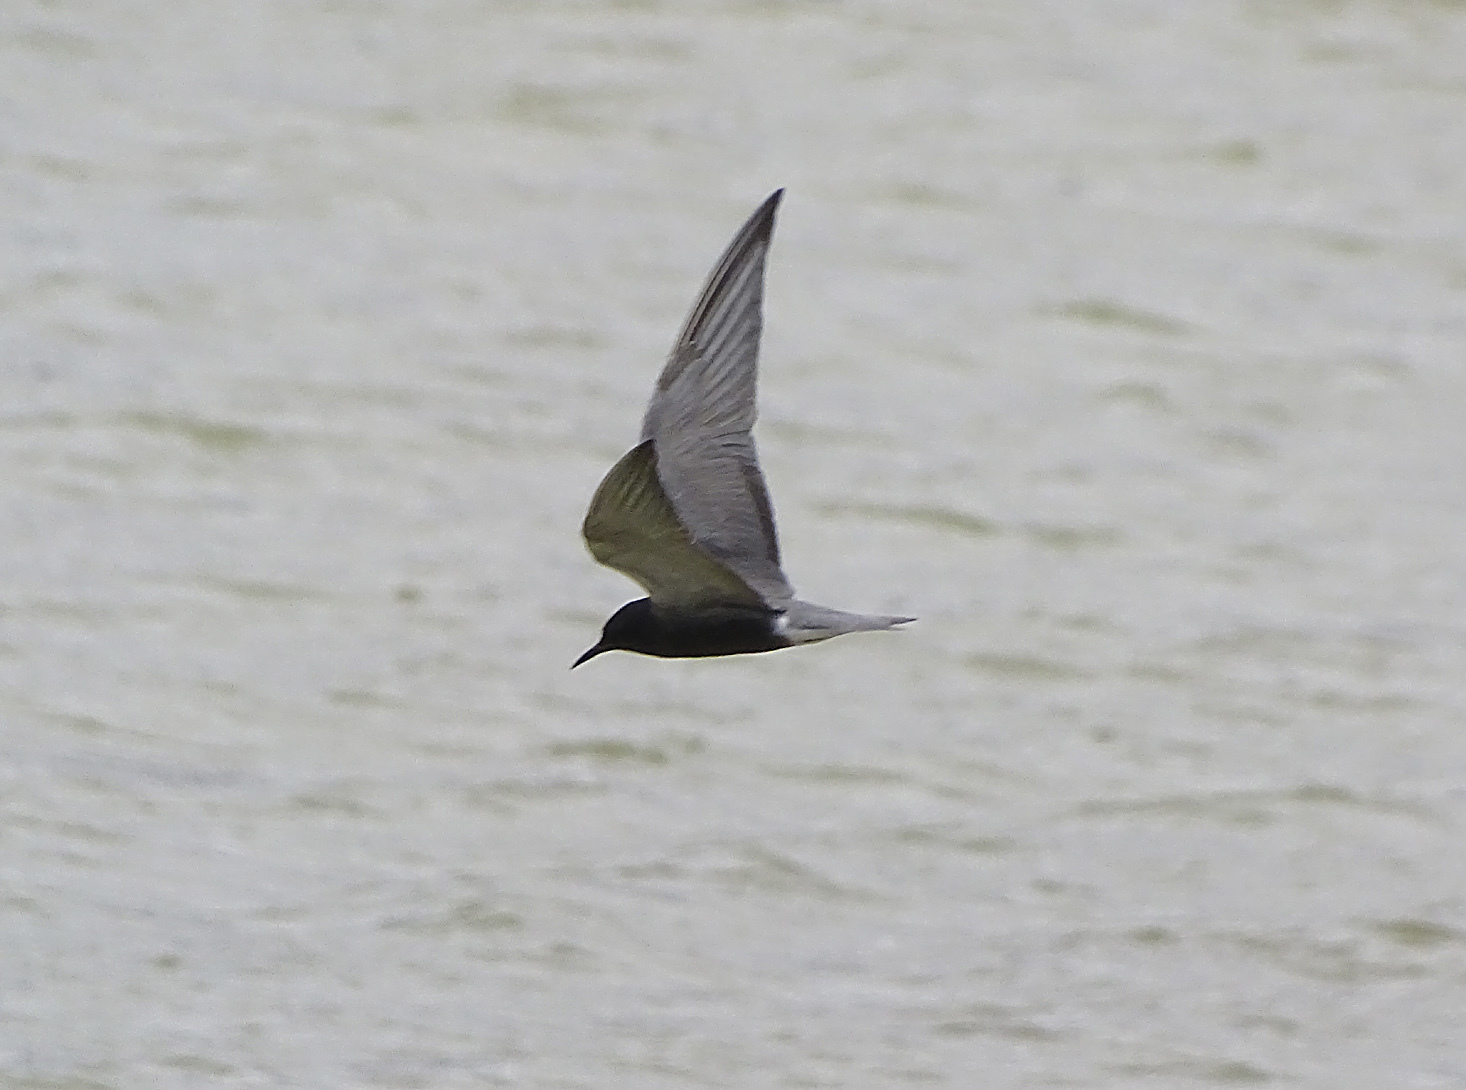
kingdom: Animalia
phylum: Chordata
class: Aves
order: Charadriiformes
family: Laridae
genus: Chlidonias
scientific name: Chlidonias niger
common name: Black tern
